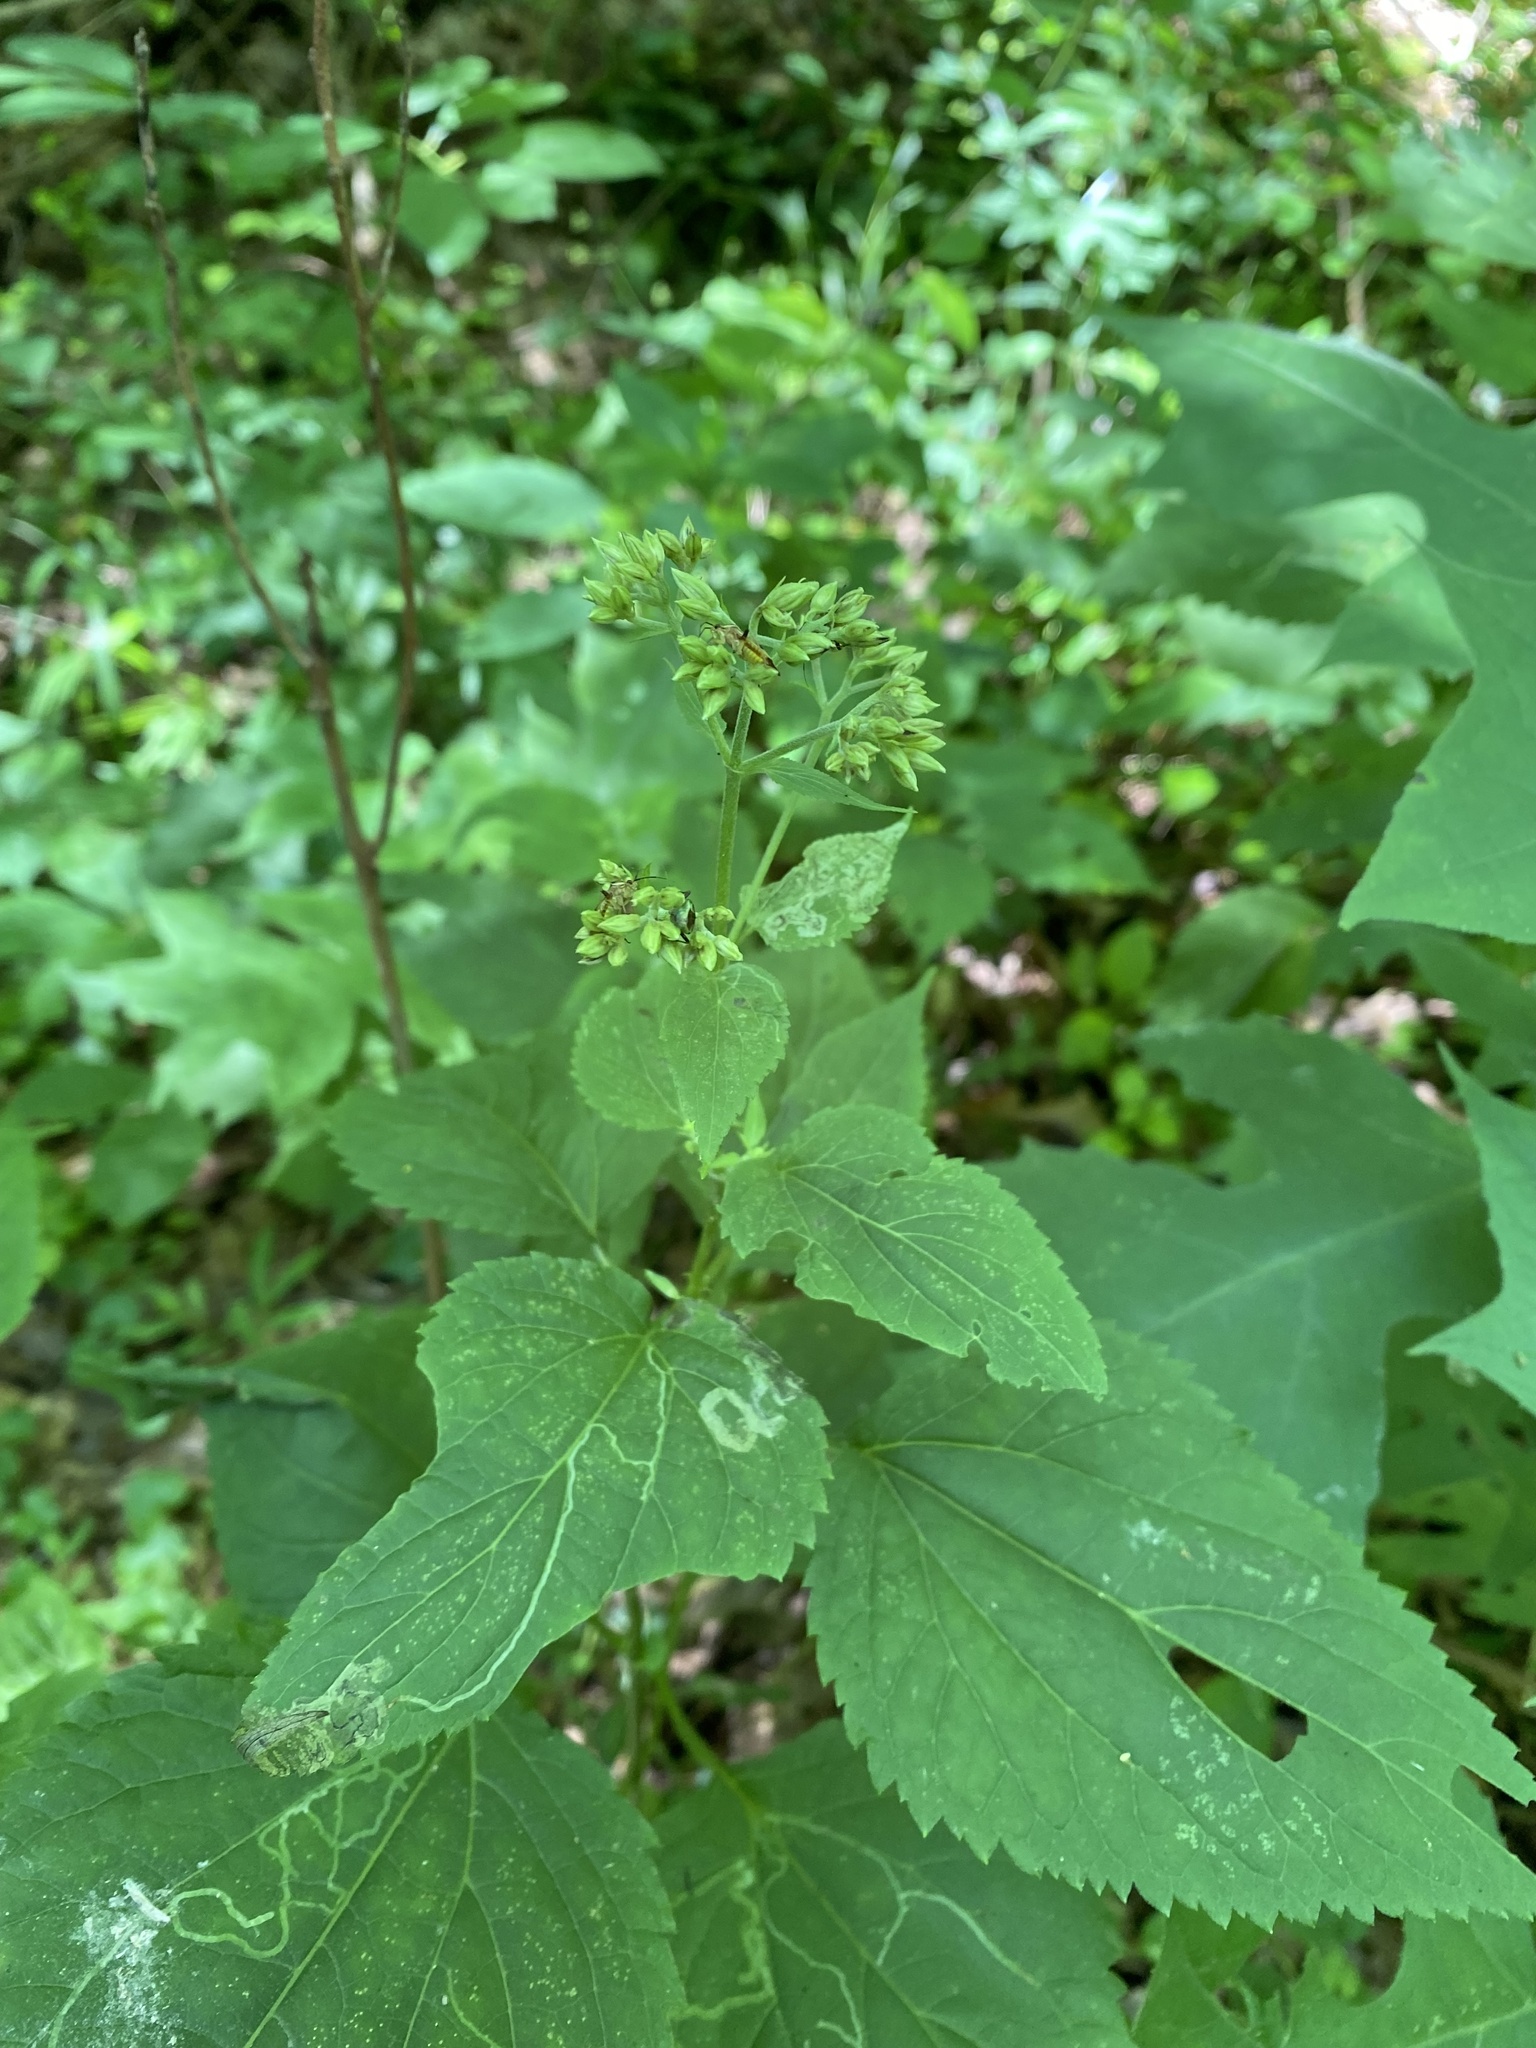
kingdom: Plantae
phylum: Tracheophyta
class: Magnoliopsida
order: Asterales
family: Asteraceae
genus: Ageratina
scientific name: Ageratina altissima
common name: White snakeroot
